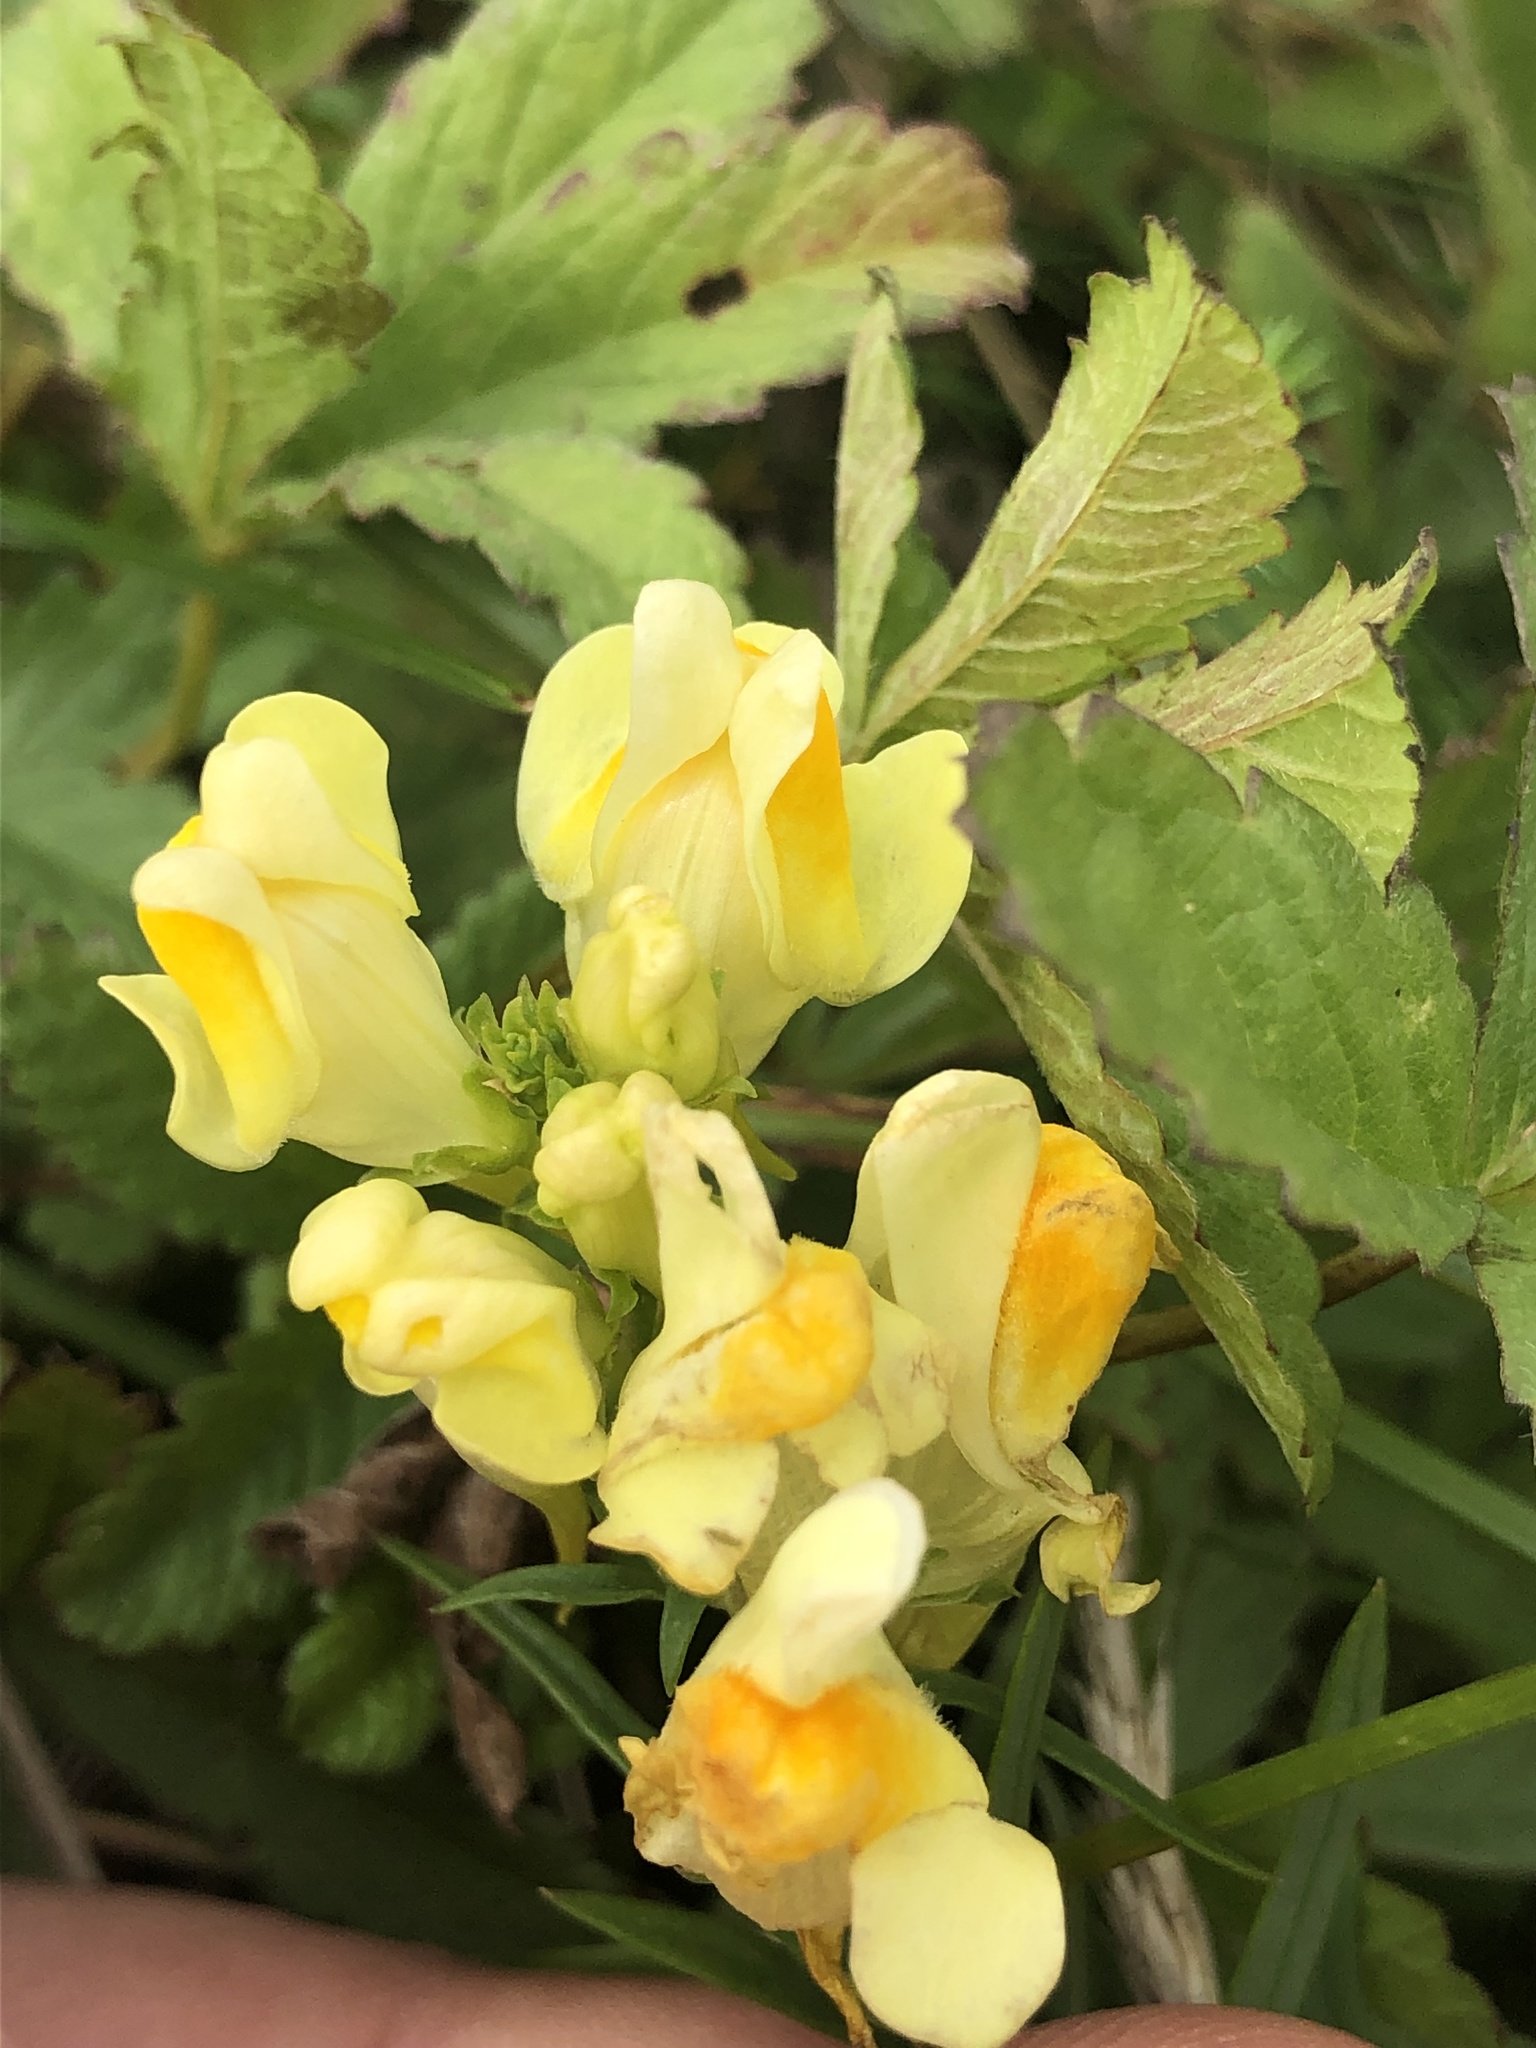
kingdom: Plantae
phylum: Tracheophyta
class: Magnoliopsida
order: Lamiales
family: Plantaginaceae
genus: Linaria
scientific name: Linaria vulgaris
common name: Butter and eggs
